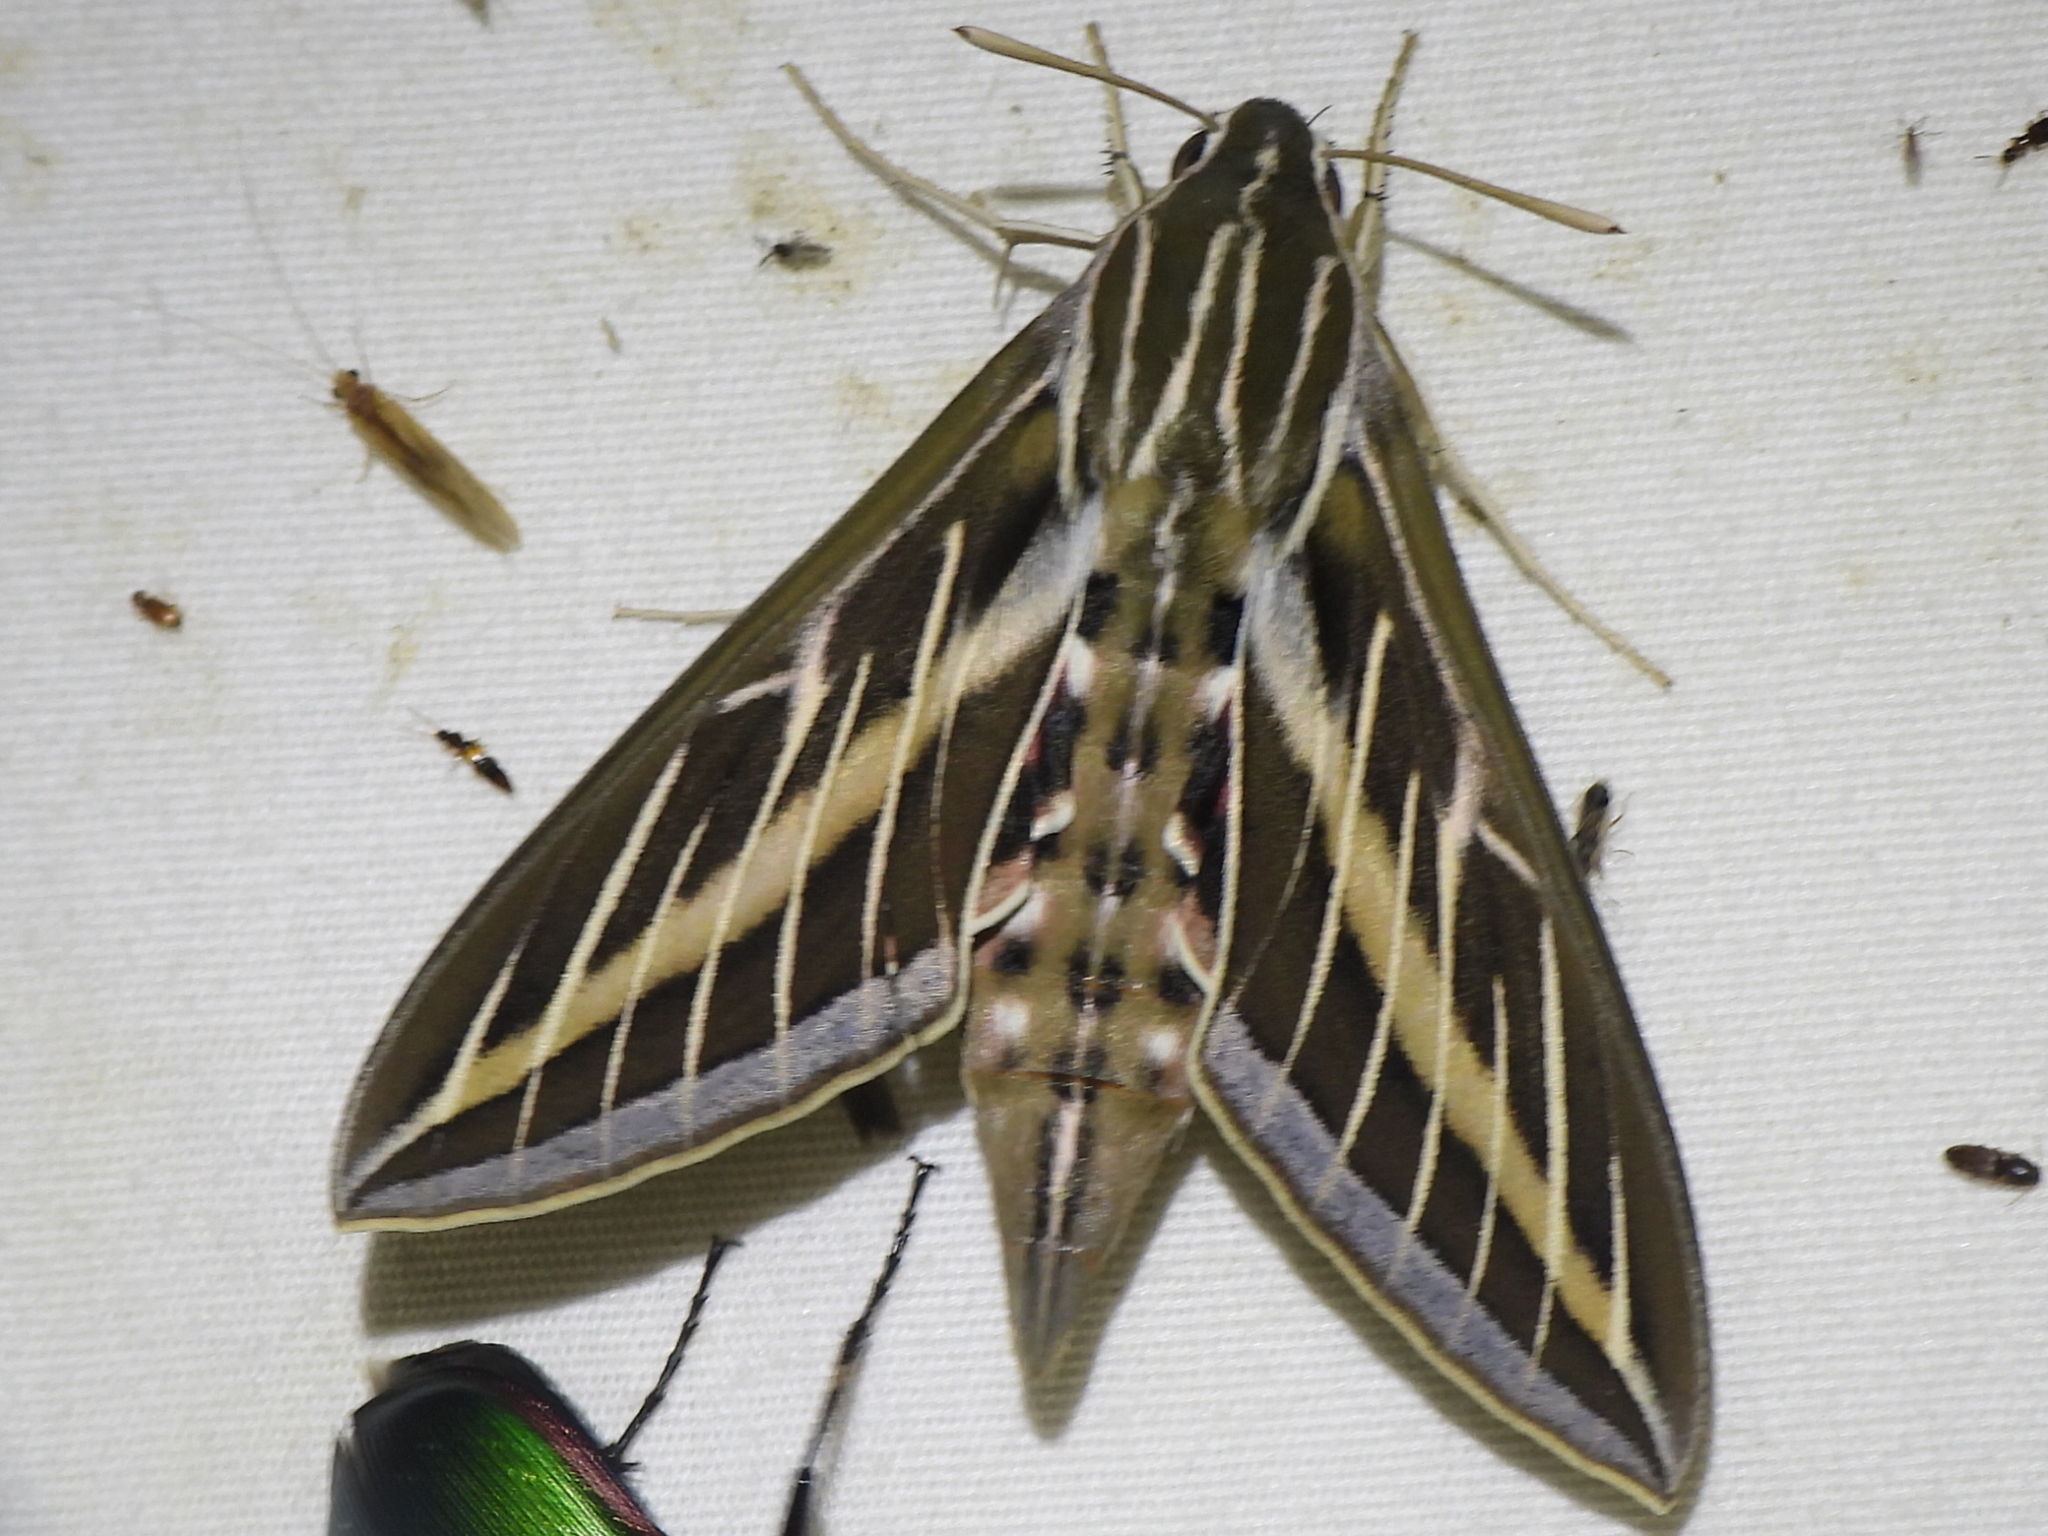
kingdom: Animalia
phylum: Arthropoda
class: Insecta
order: Lepidoptera
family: Sphingidae
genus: Hyles
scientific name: Hyles lineata
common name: White-lined sphinx
